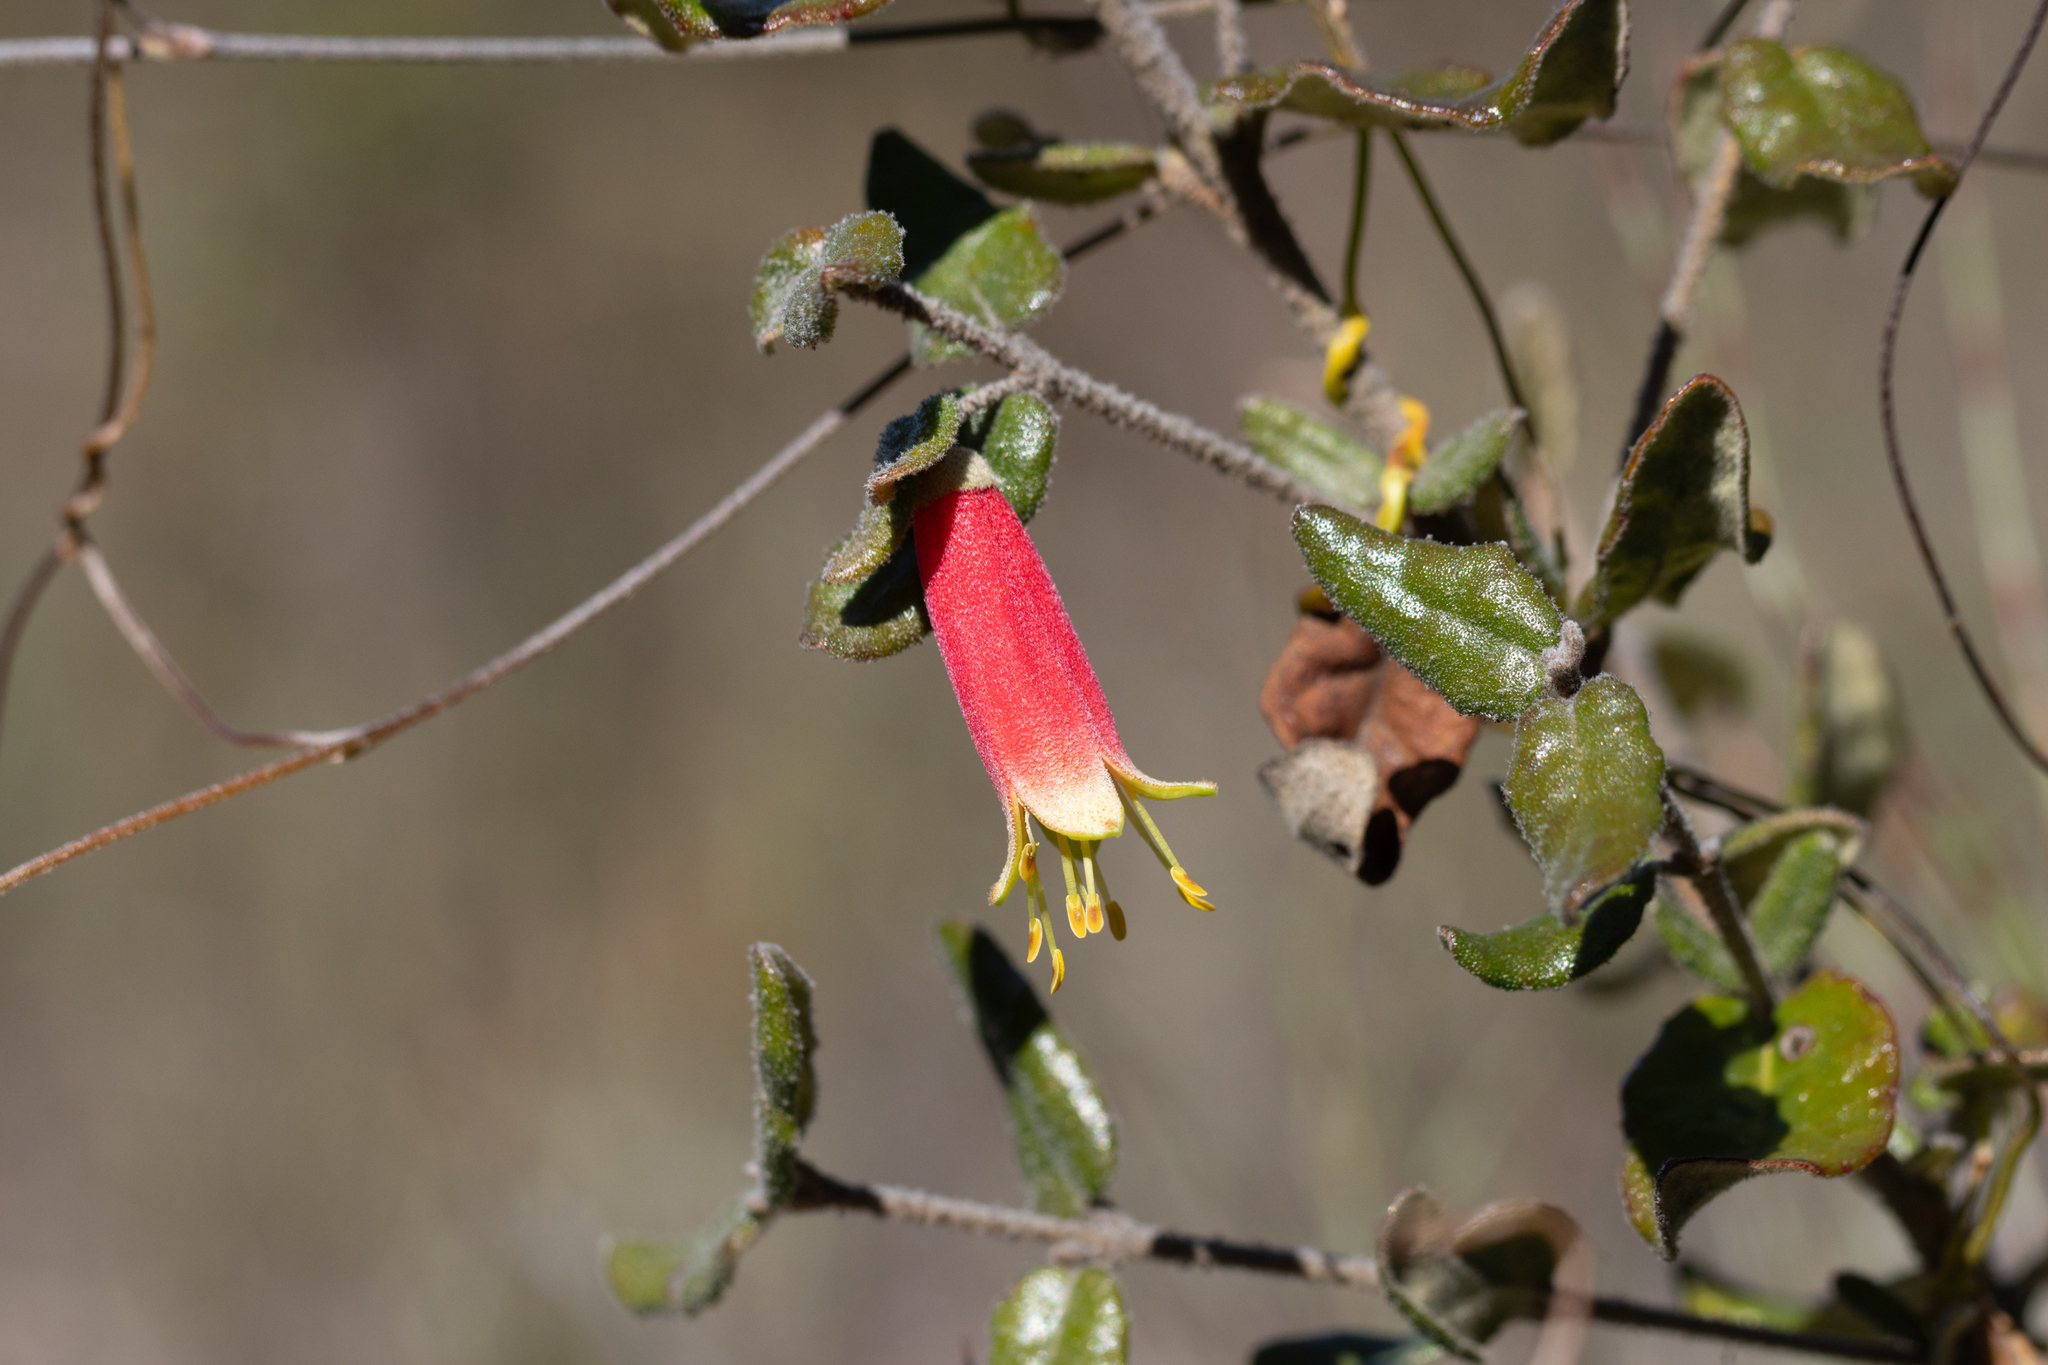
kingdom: Plantae
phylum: Tracheophyta
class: Magnoliopsida
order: Sapindales
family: Rutaceae
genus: Correa
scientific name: Correa reflexa
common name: Common correa
